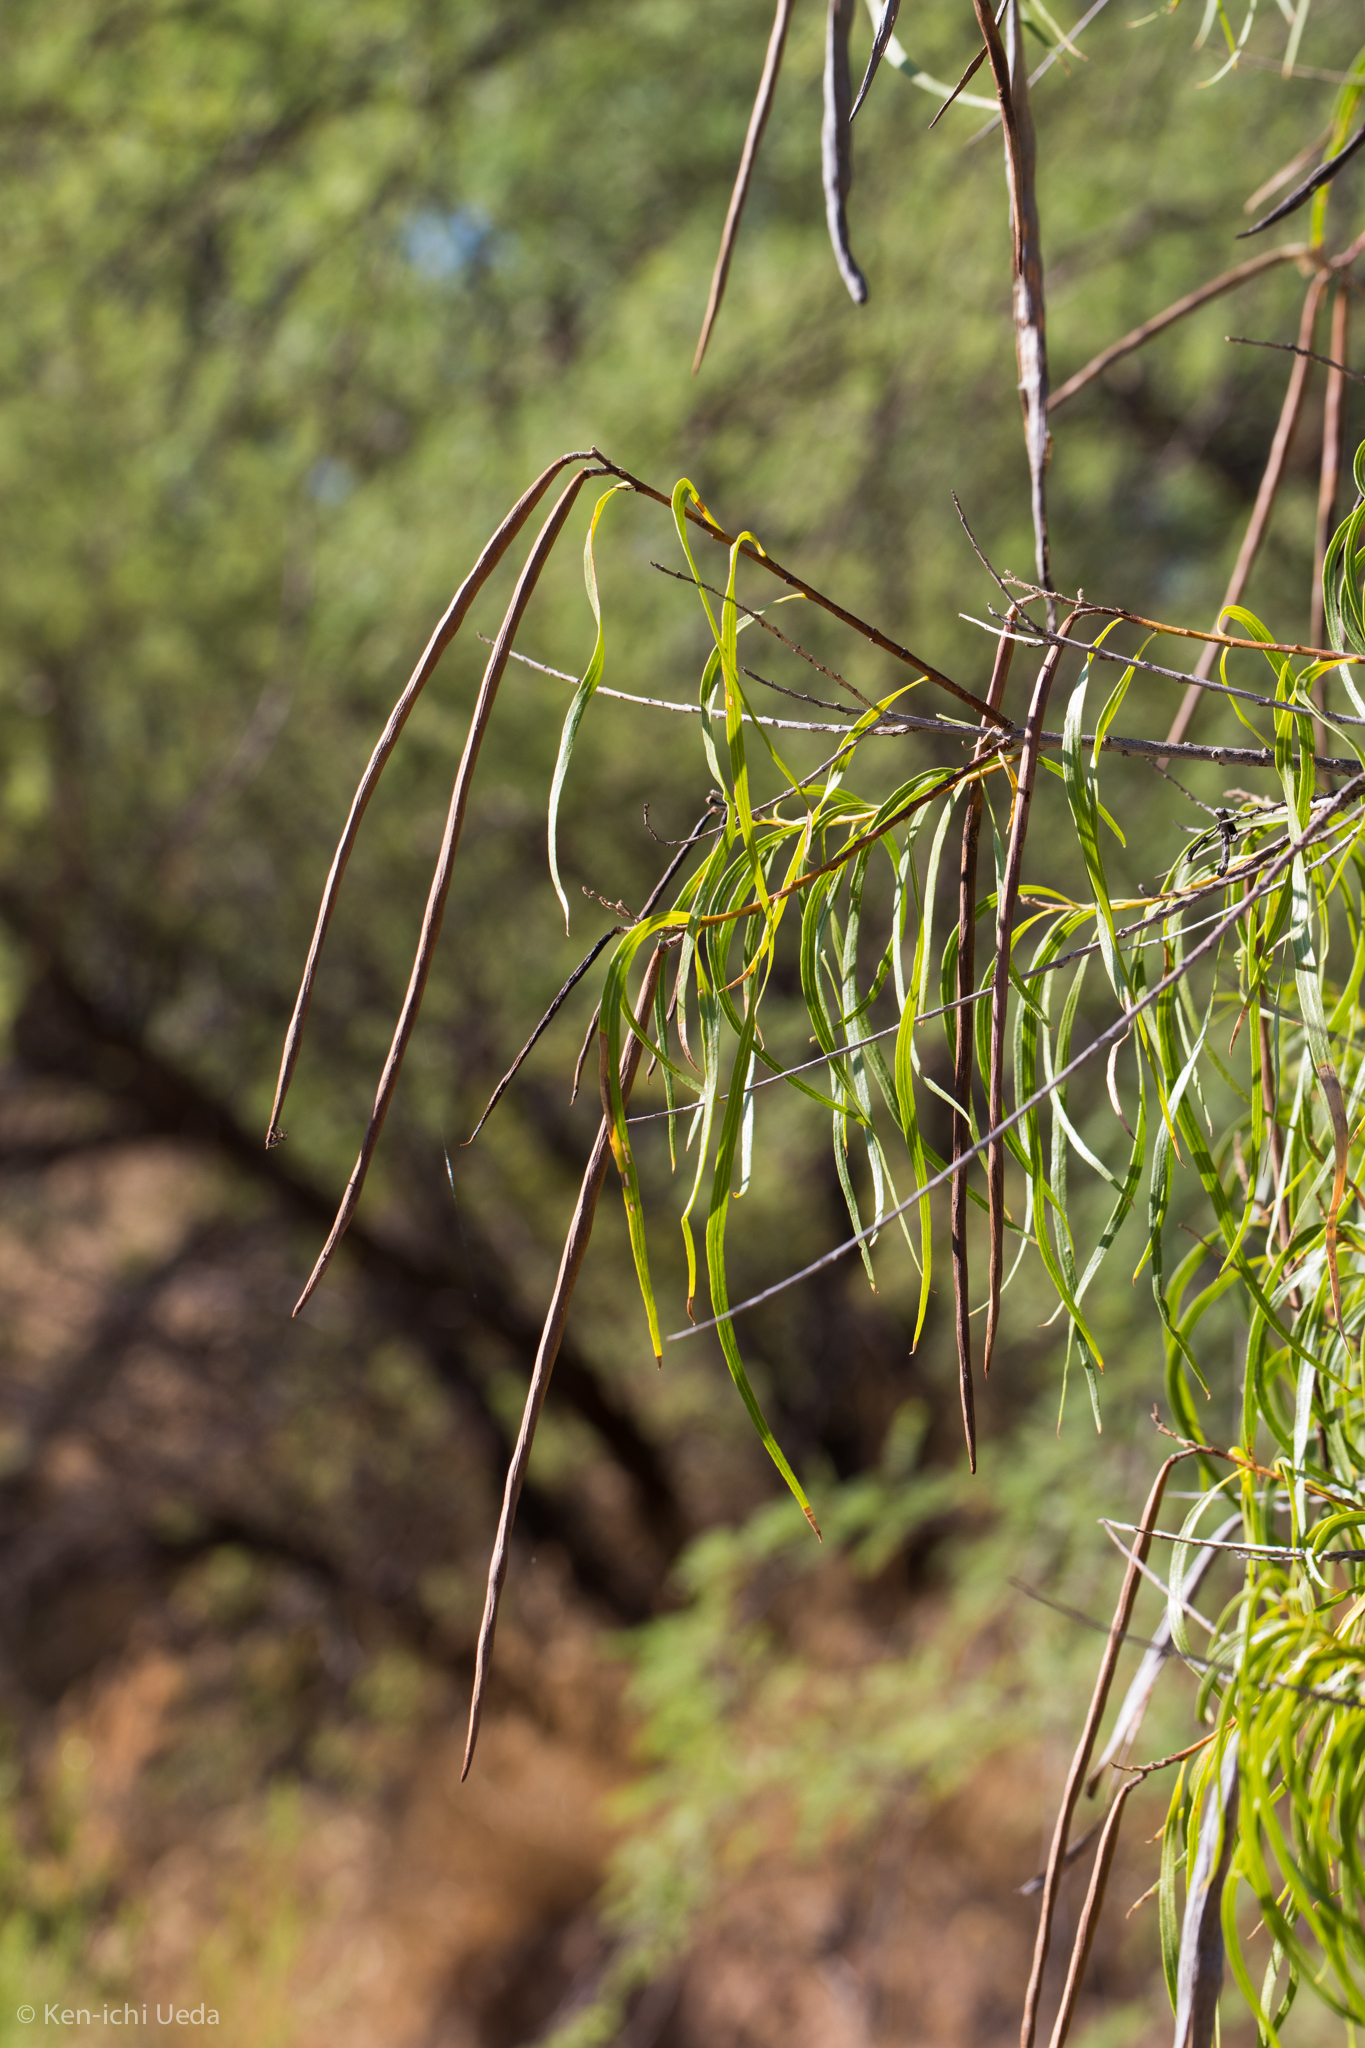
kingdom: Plantae
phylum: Tracheophyta
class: Magnoliopsida
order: Lamiales
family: Bignoniaceae
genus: Chilopsis
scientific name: Chilopsis linearis
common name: Desert-willow
